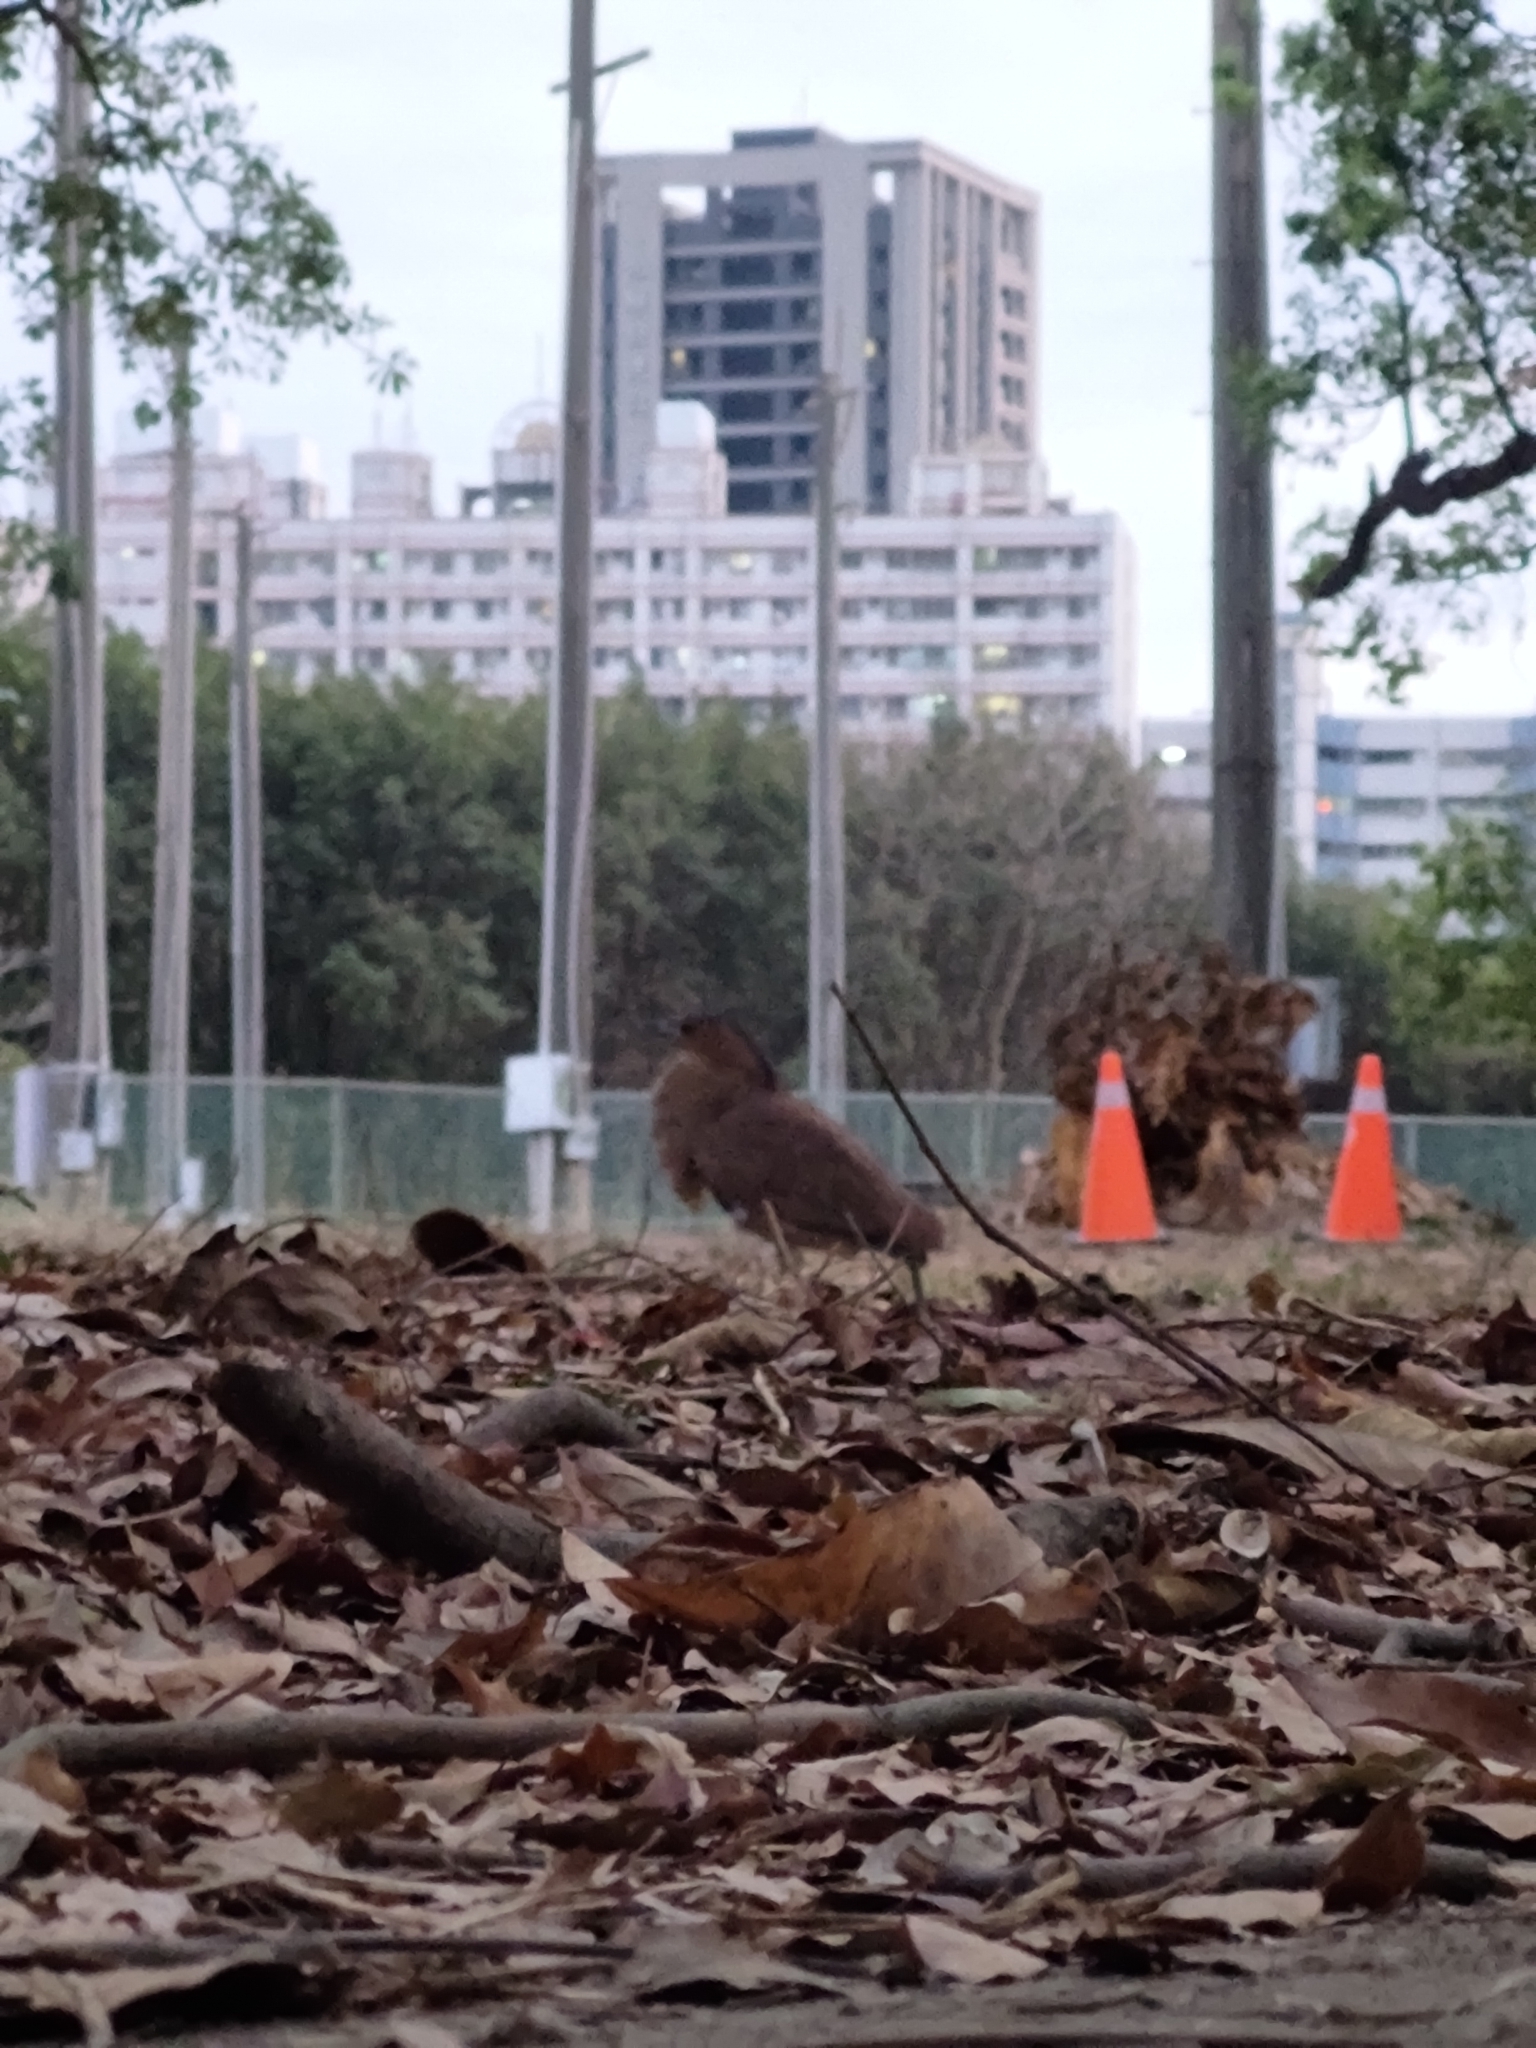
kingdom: Animalia
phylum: Chordata
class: Aves
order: Pelecaniformes
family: Ardeidae
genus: Gorsachius
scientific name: Gorsachius melanolophus
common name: Malayan night heron
